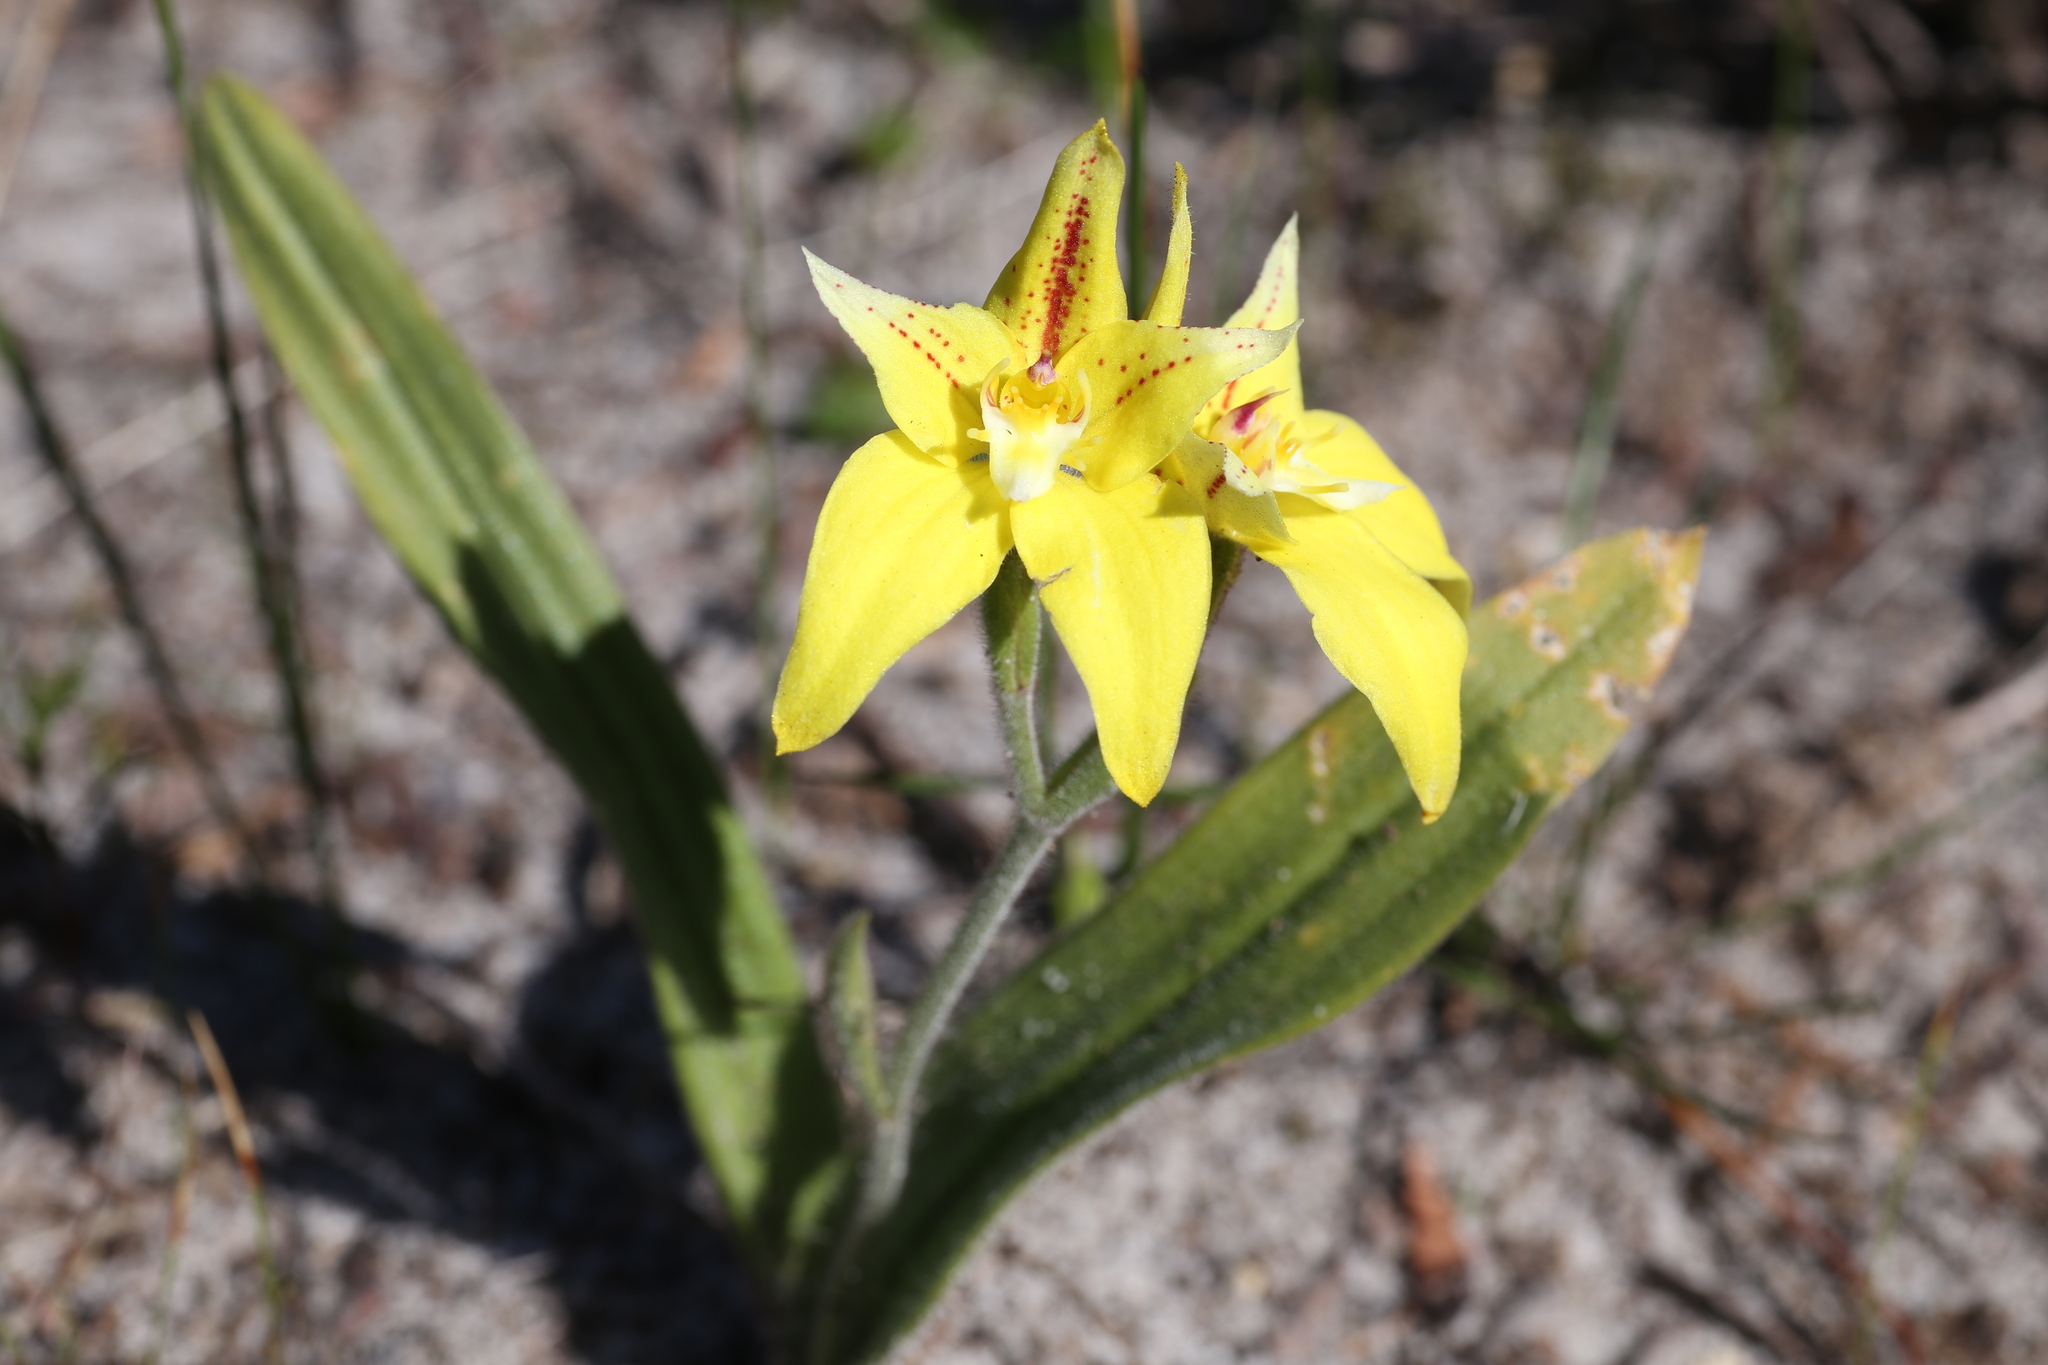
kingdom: Plantae
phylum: Tracheophyta
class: Liliopsida
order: Asparagales
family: Orchidaceae
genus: Caladenia
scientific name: Caladenia flava
